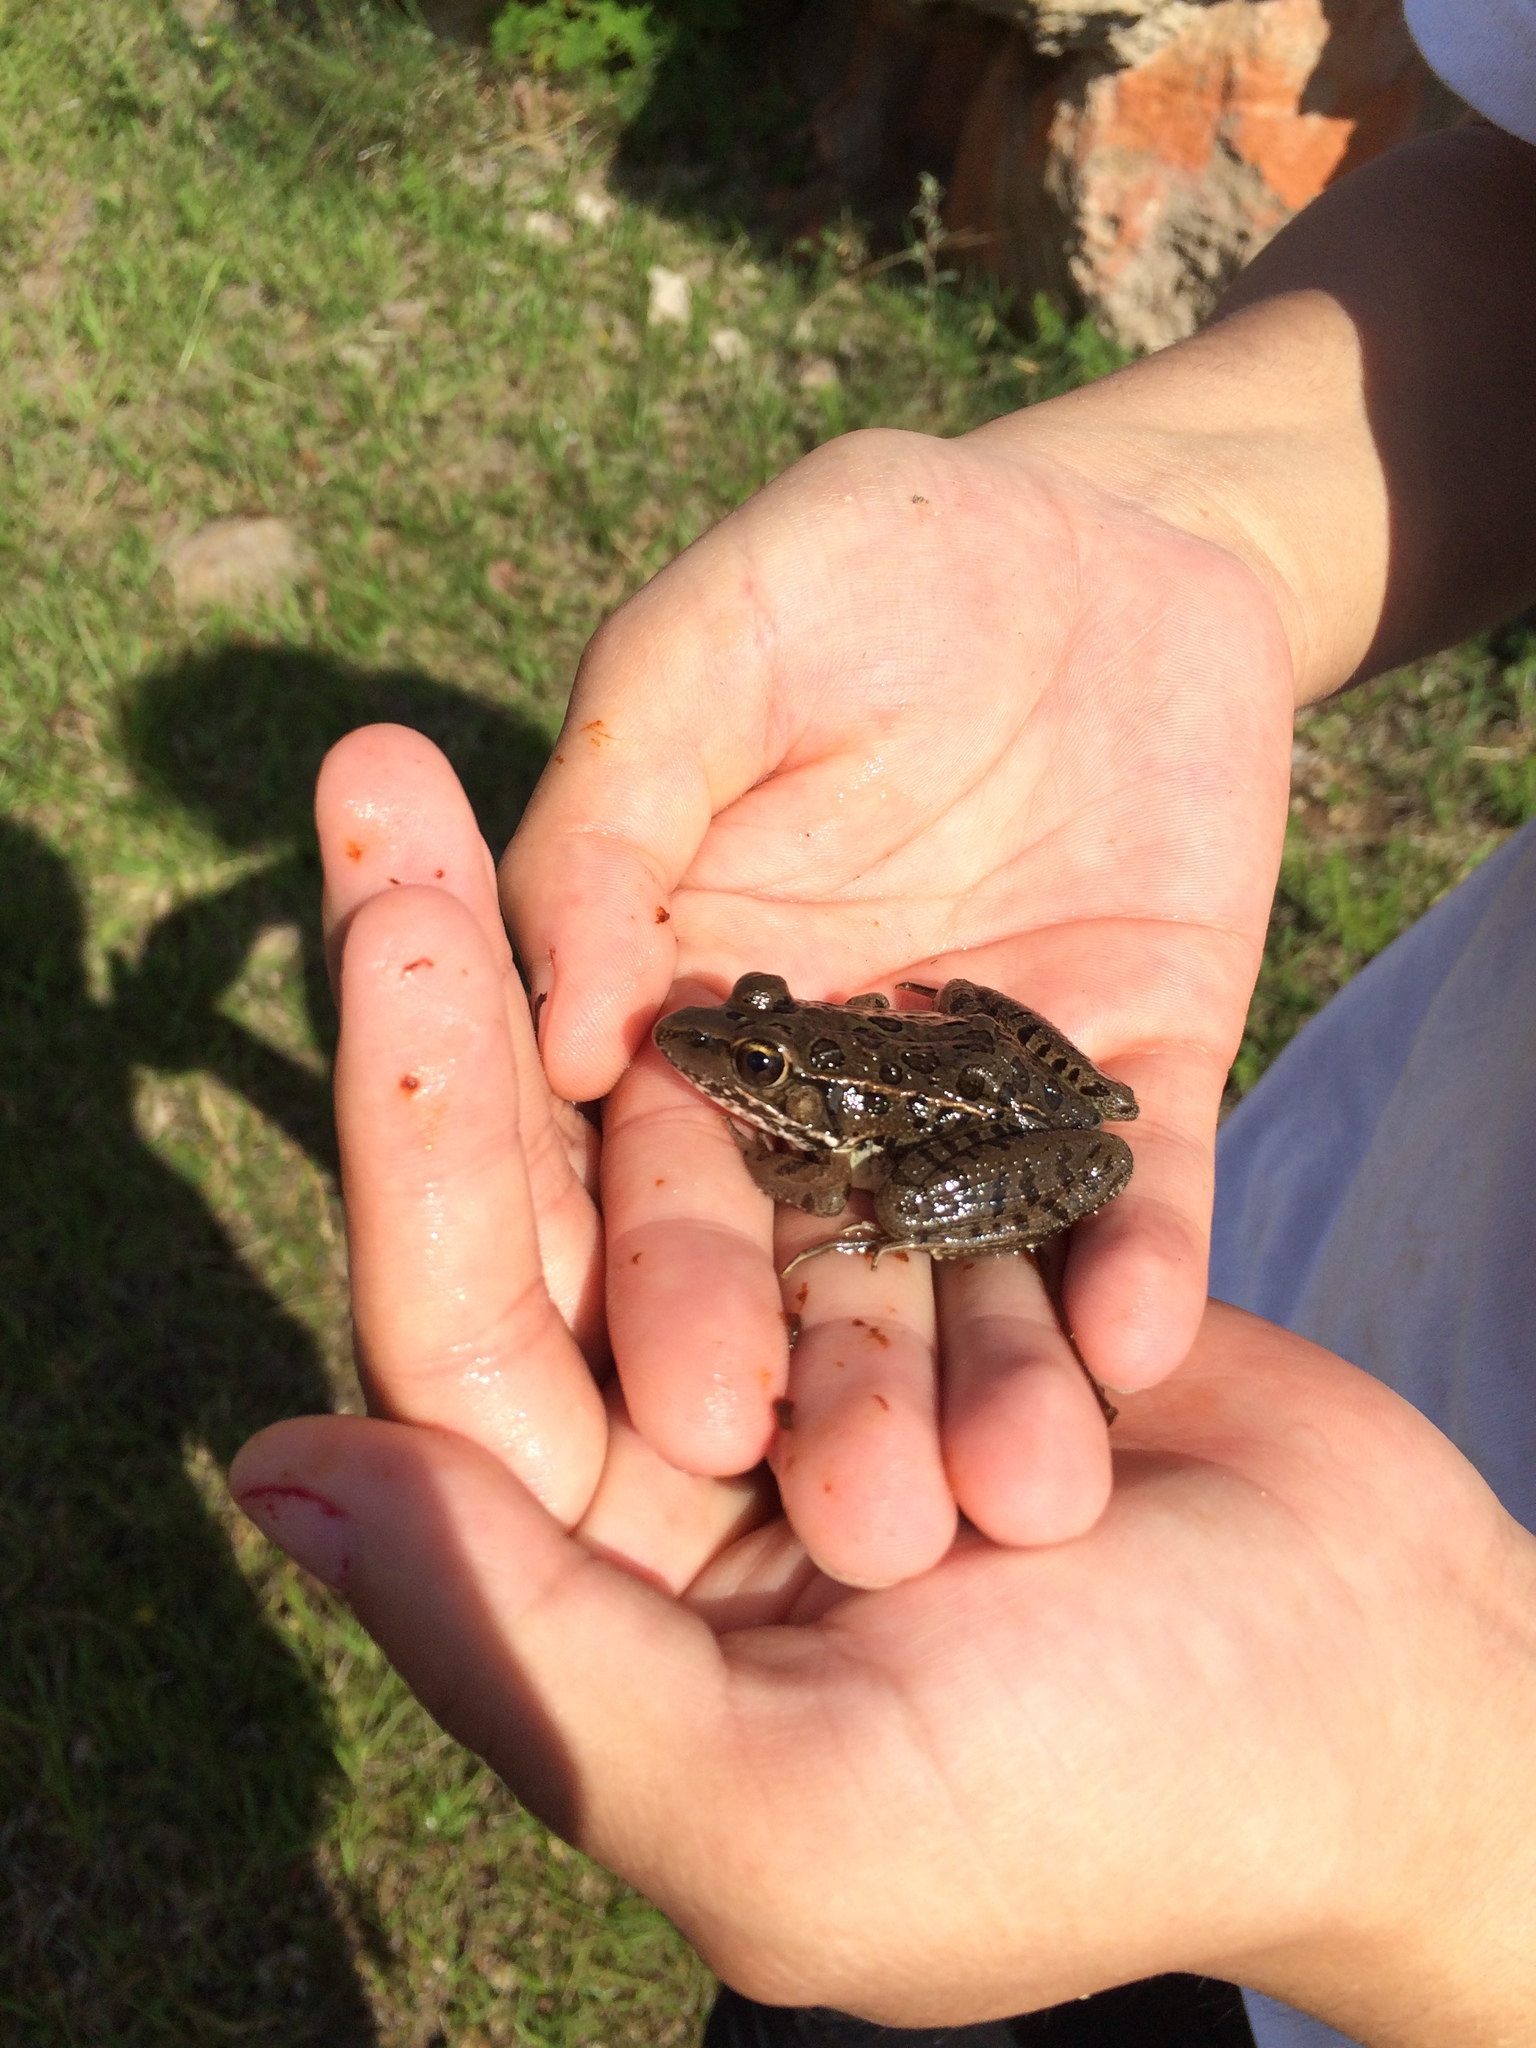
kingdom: Animalia
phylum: Chordata
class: Amphibia
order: Anura
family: Ranidae
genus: Lithobates
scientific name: Lithobates berlandieri
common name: Rio grande leopard frog
